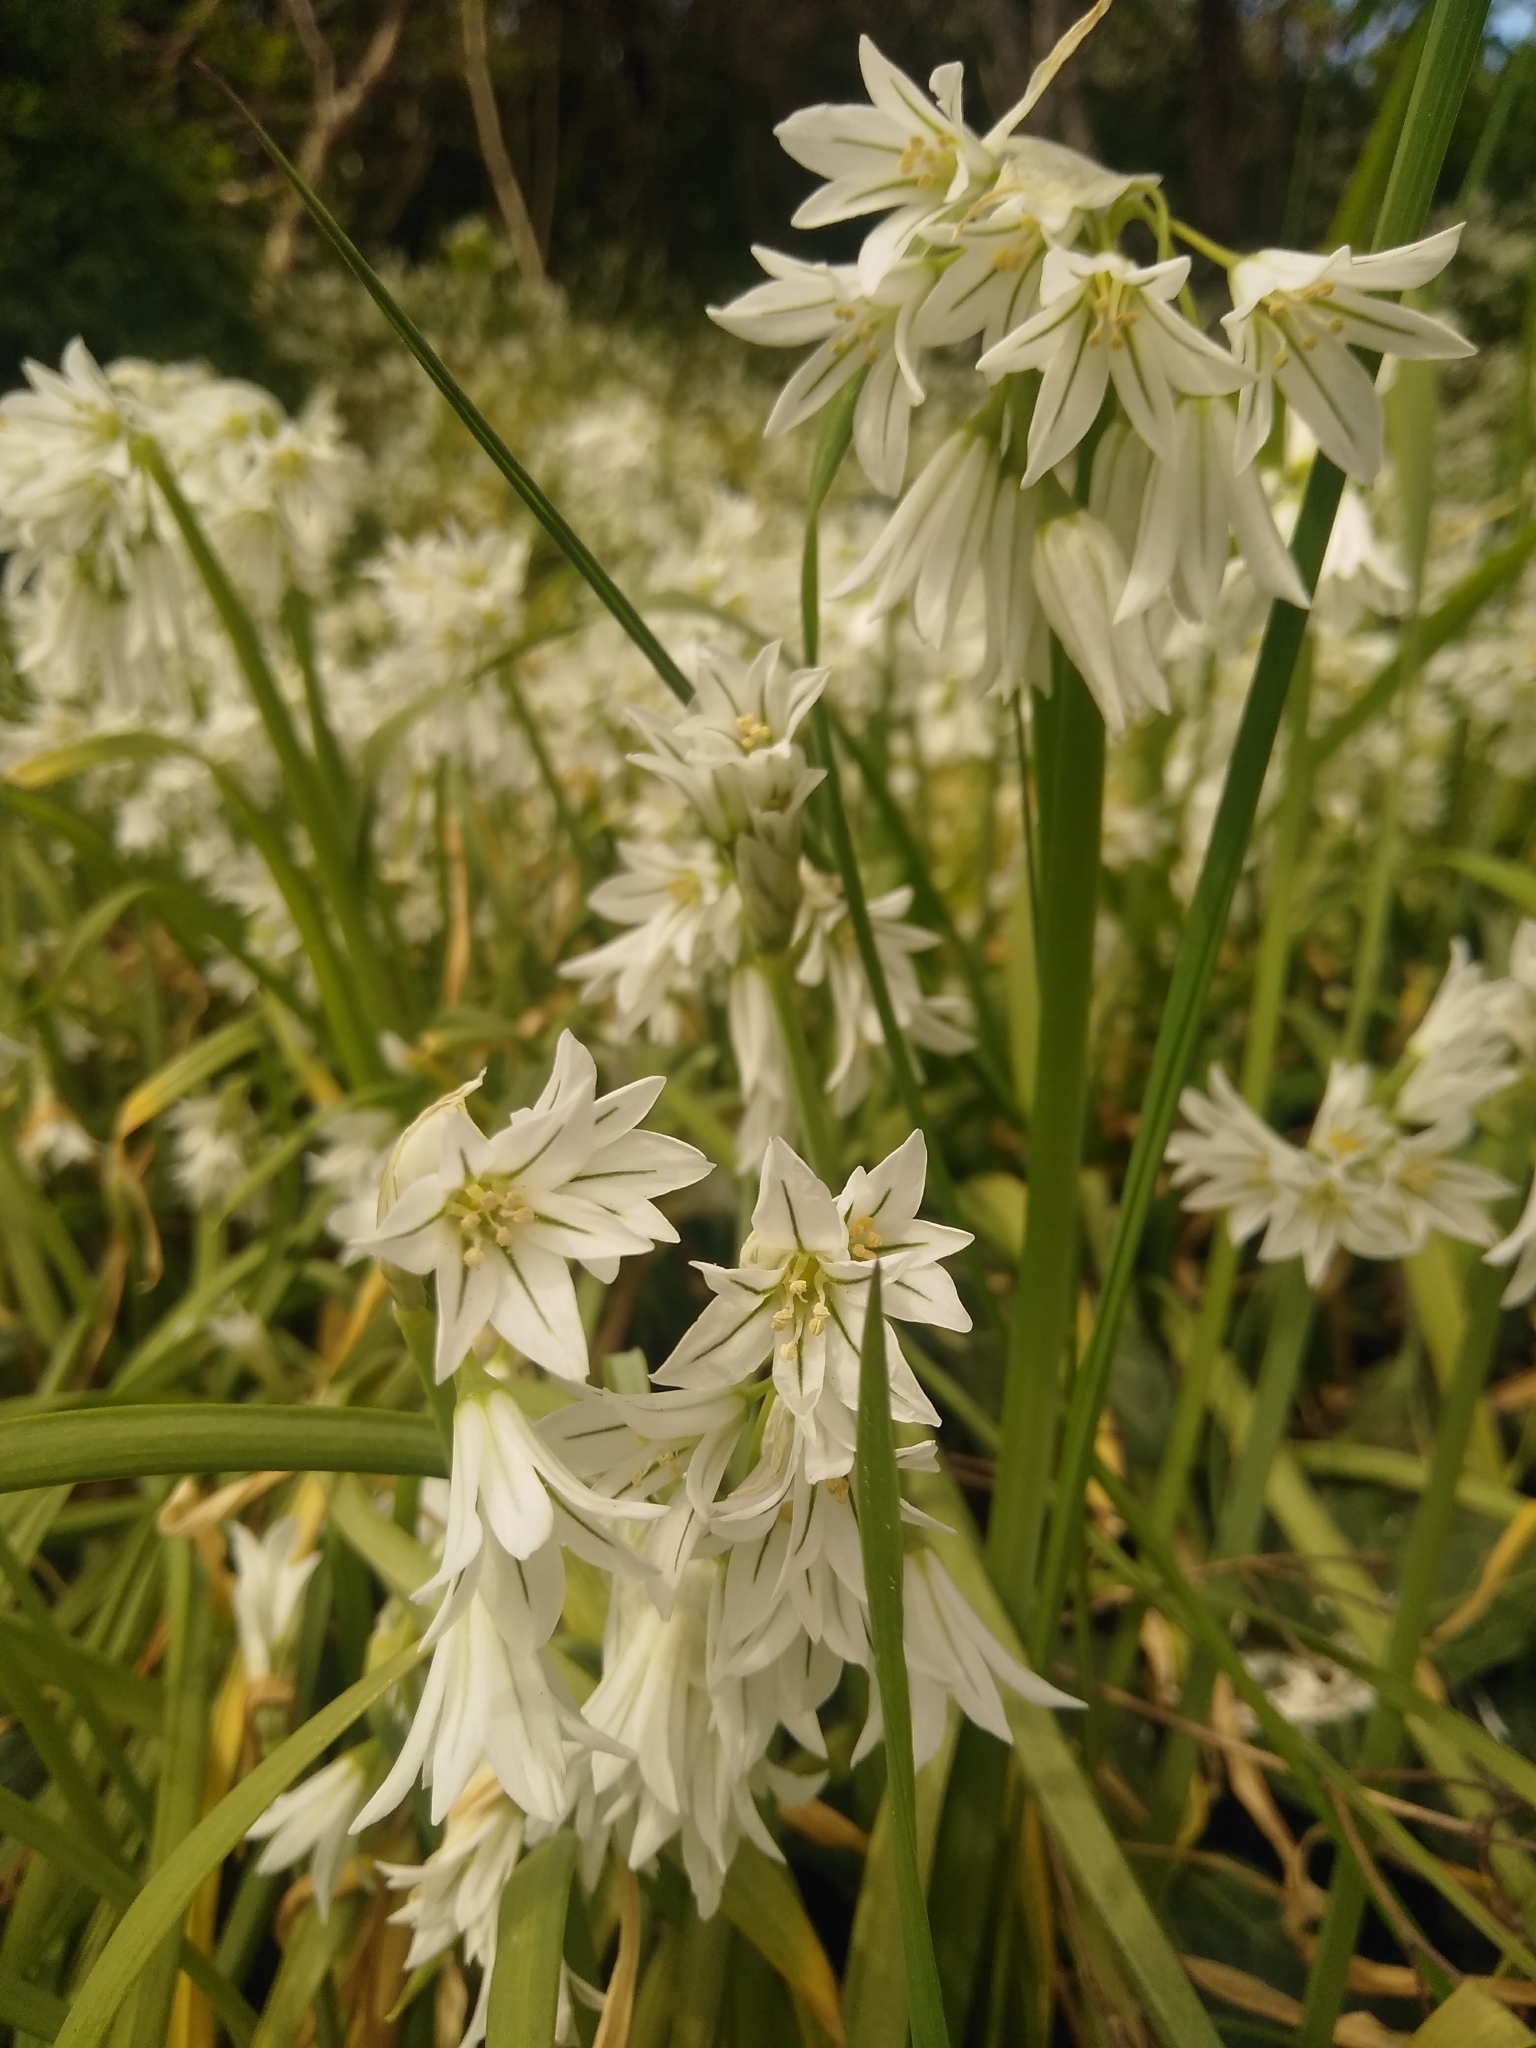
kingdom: Plantae
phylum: Tracheophyta
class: Liliopsida
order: Asparagales
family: Amaryllidaceae
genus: Allium
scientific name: Allium triquetrum
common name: Three-cornered garlic
